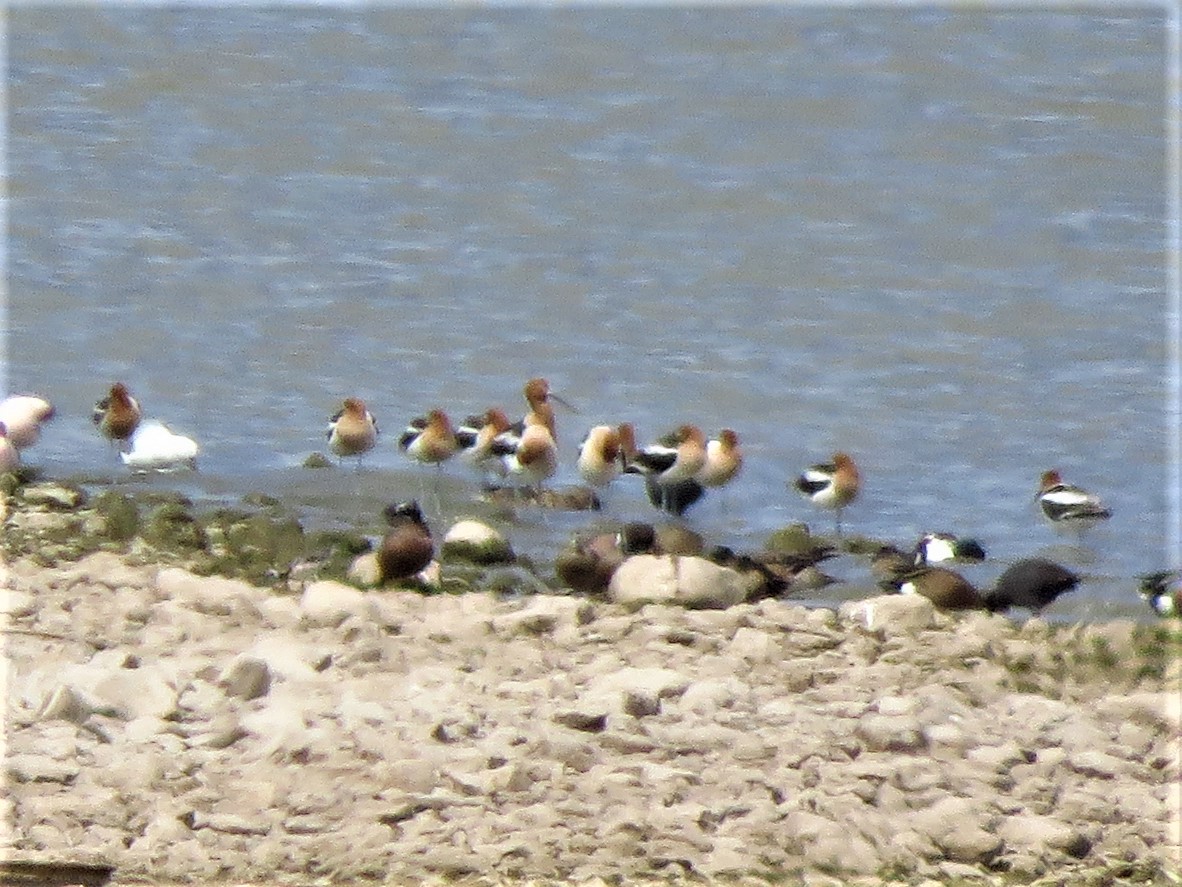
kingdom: Animalia
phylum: Chordata
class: Aves
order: Charadriiformes
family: Recurvirostridae
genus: Recurvirostra
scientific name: Recurvirostra americana
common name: American avocet
